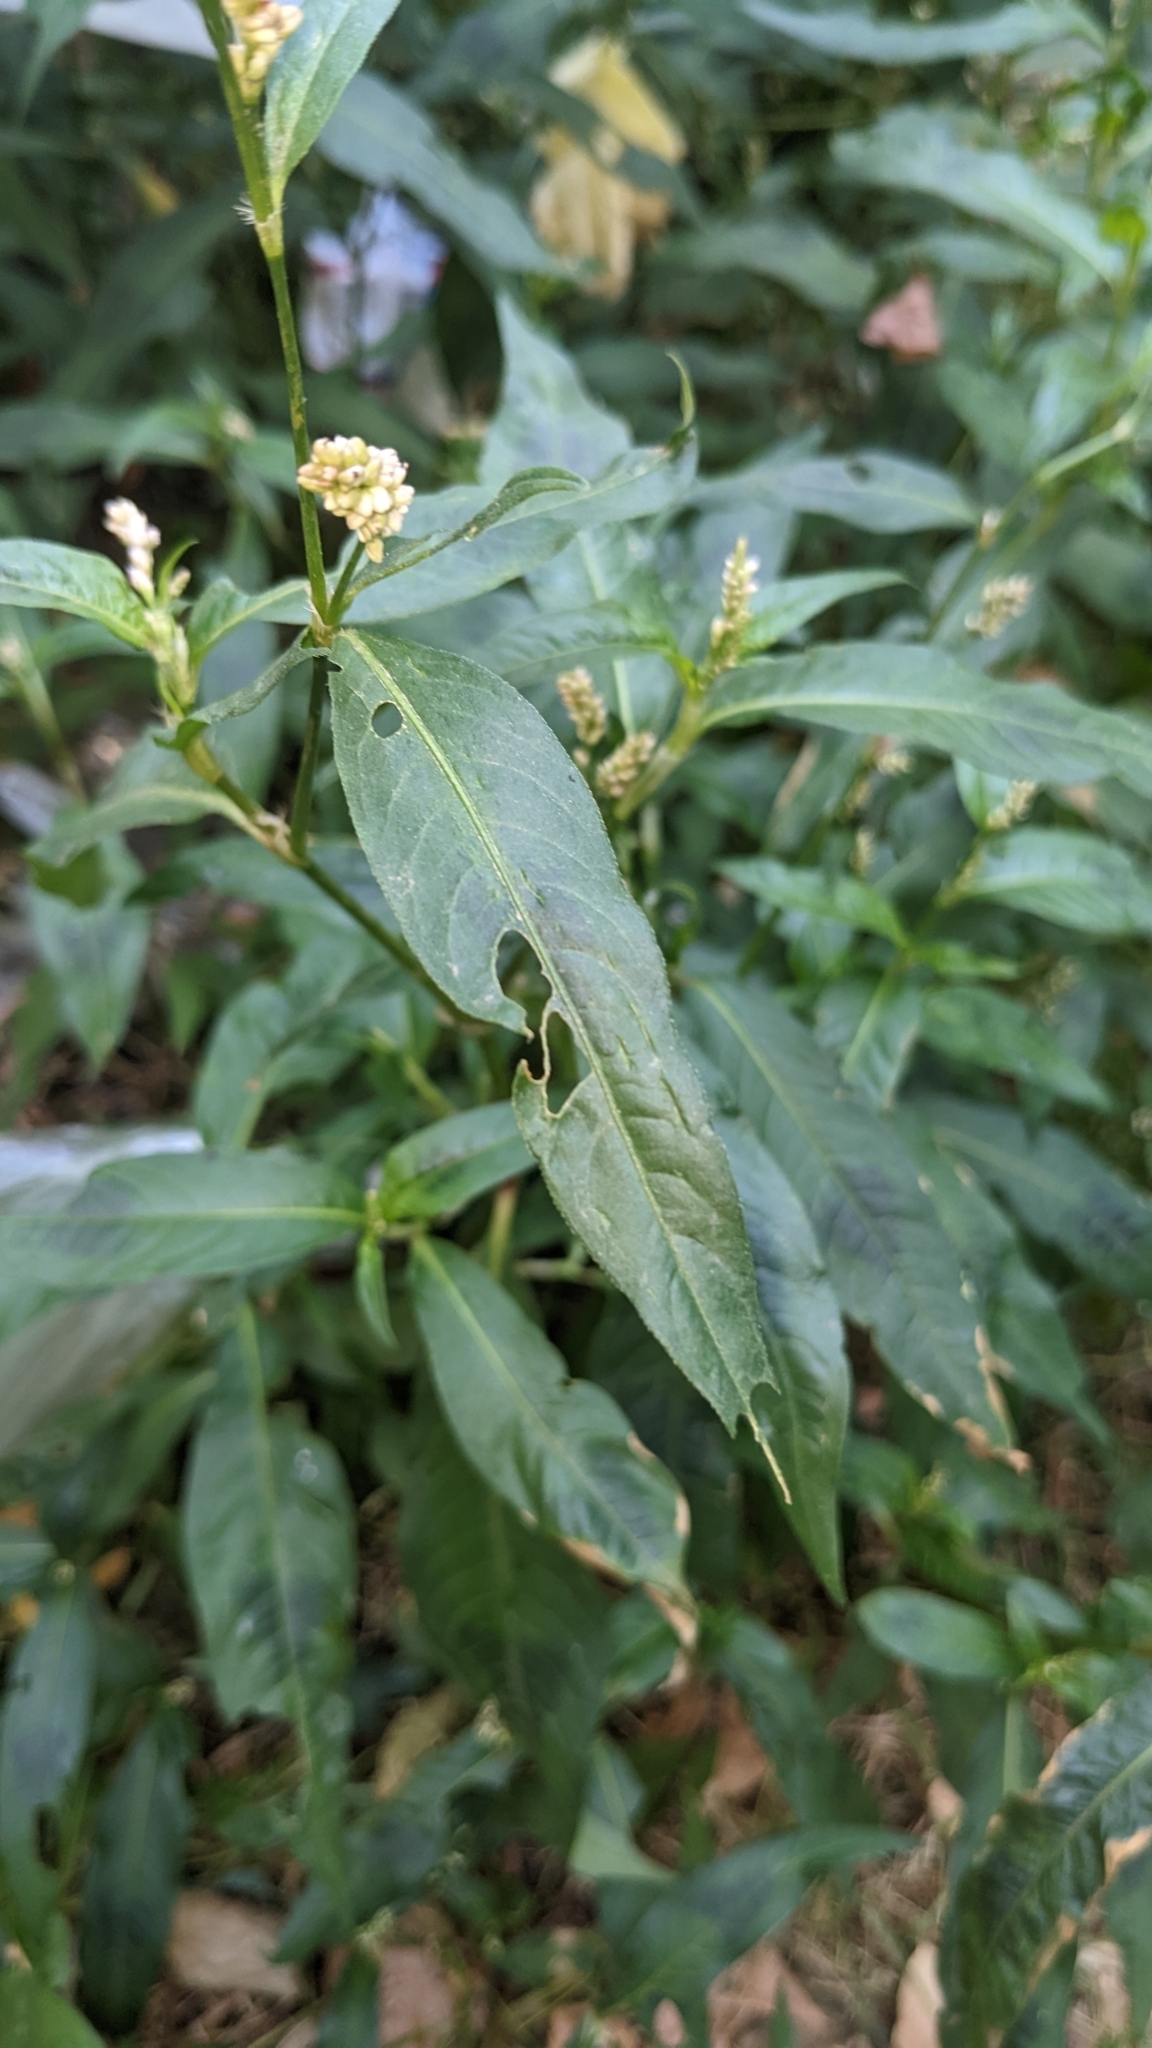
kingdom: Plantae
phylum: Tracheophyta
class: Magnoliopsida
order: Caryophyllales
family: Polygonaceae
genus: Persicaria
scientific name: Persicaria maculosa
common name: Redshank
